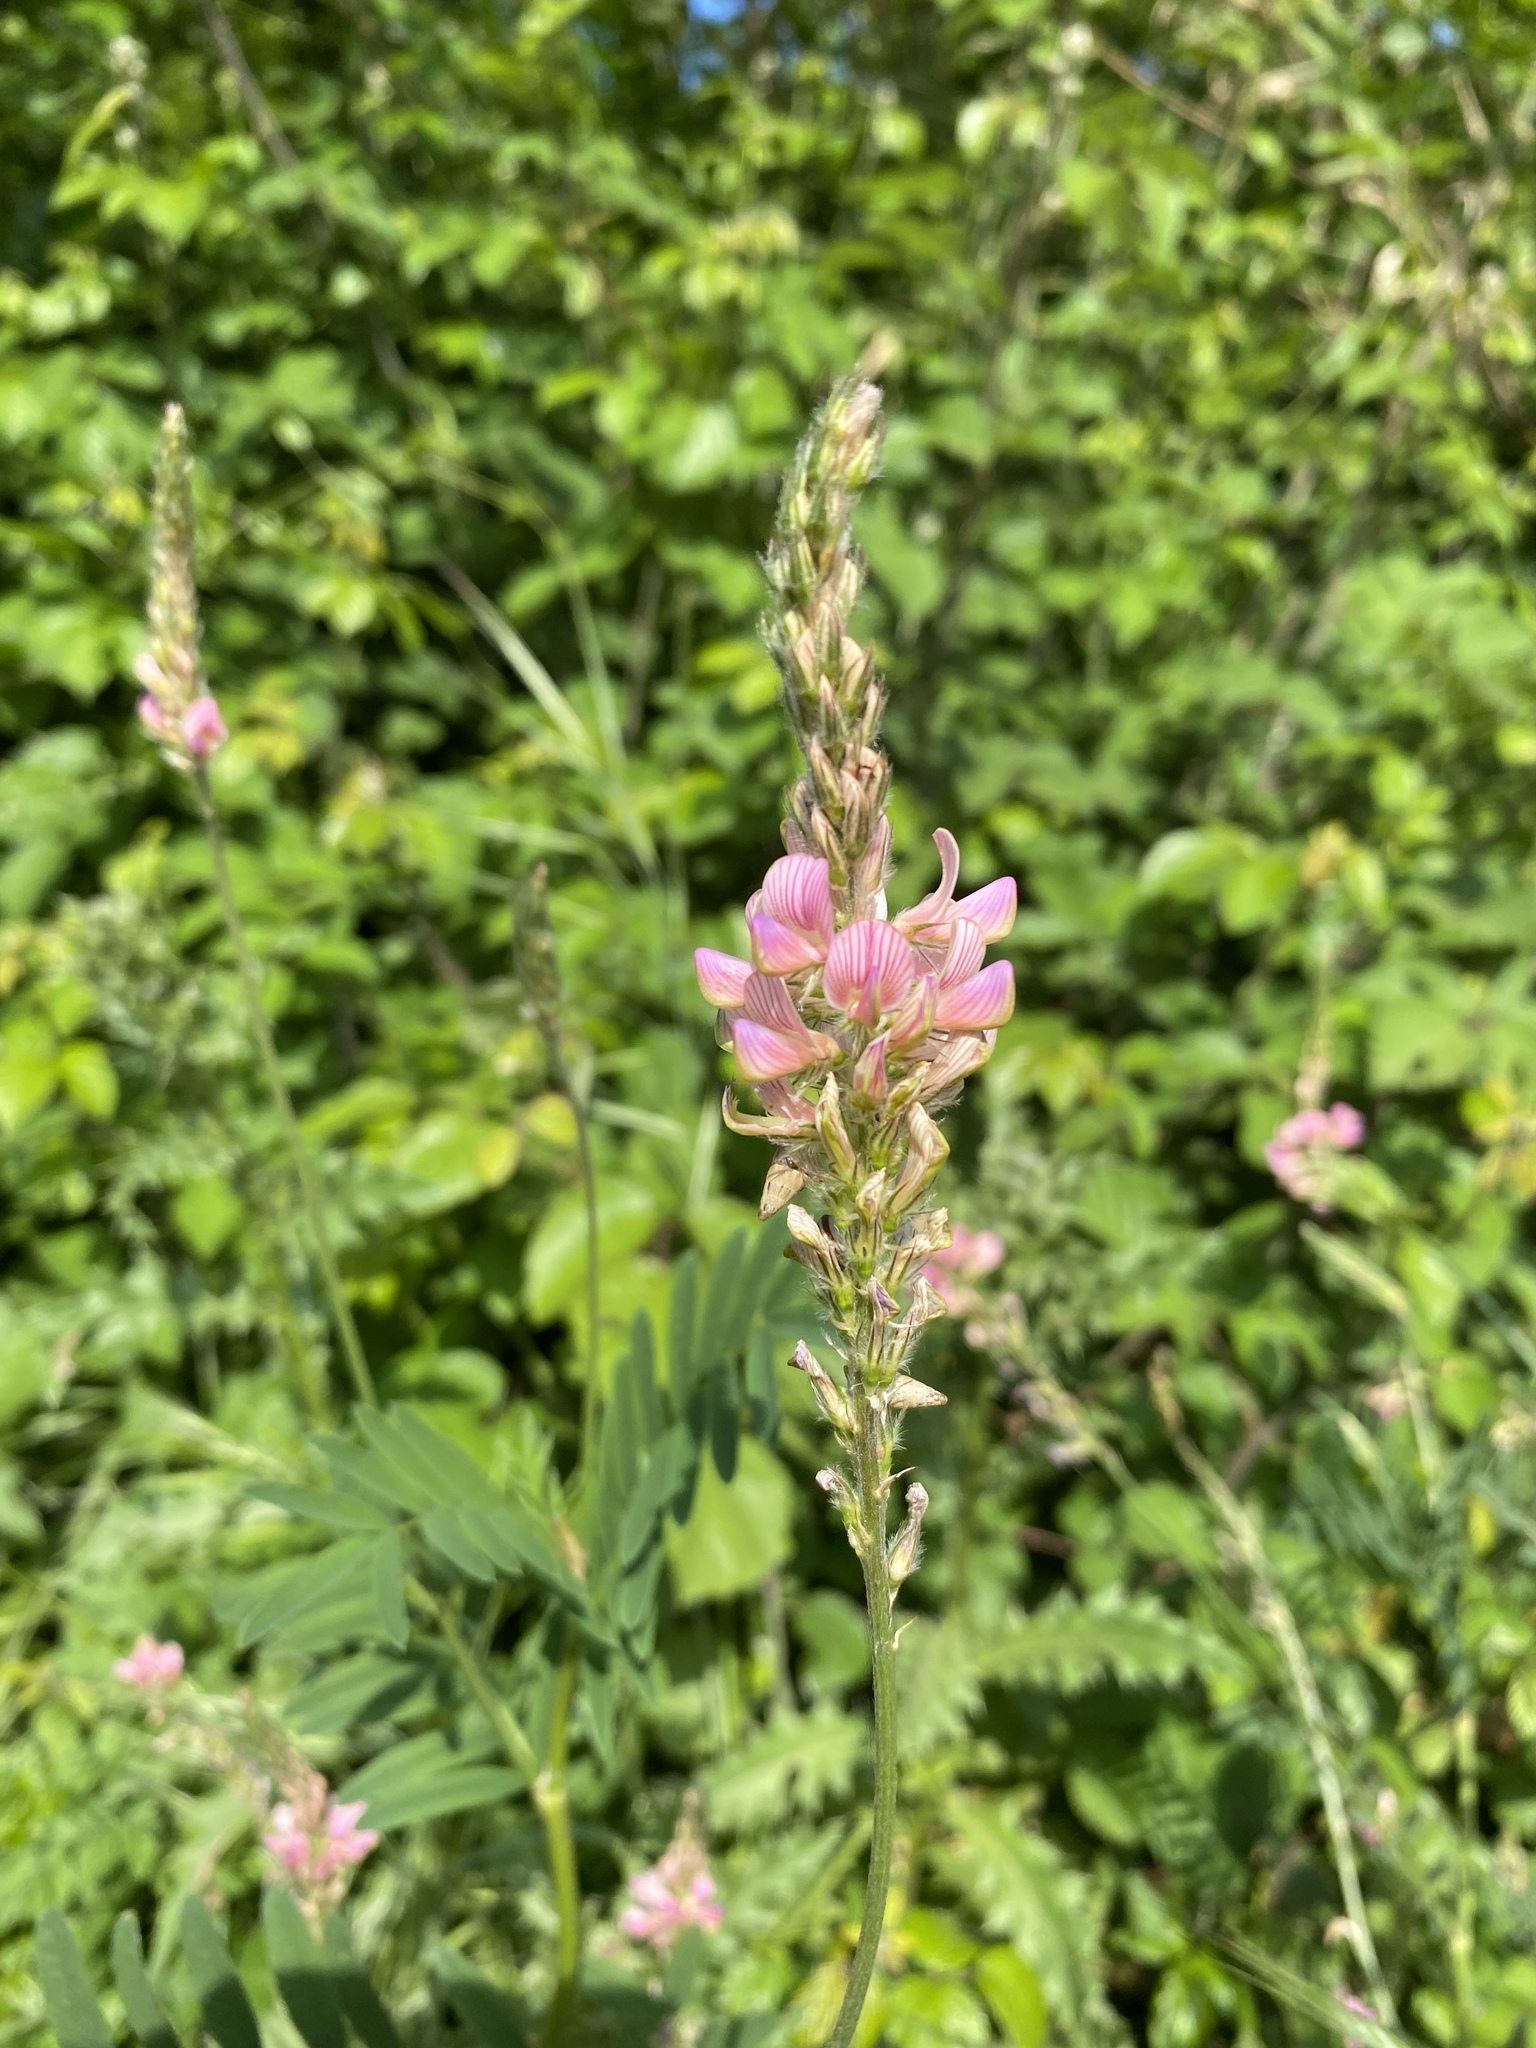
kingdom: Plantae
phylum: Tracheophyta
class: Magnoliopsida
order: Fabales
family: Fabaceae
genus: Onobrychis
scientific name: Onobrychis viciifolia
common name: Sainfoin
